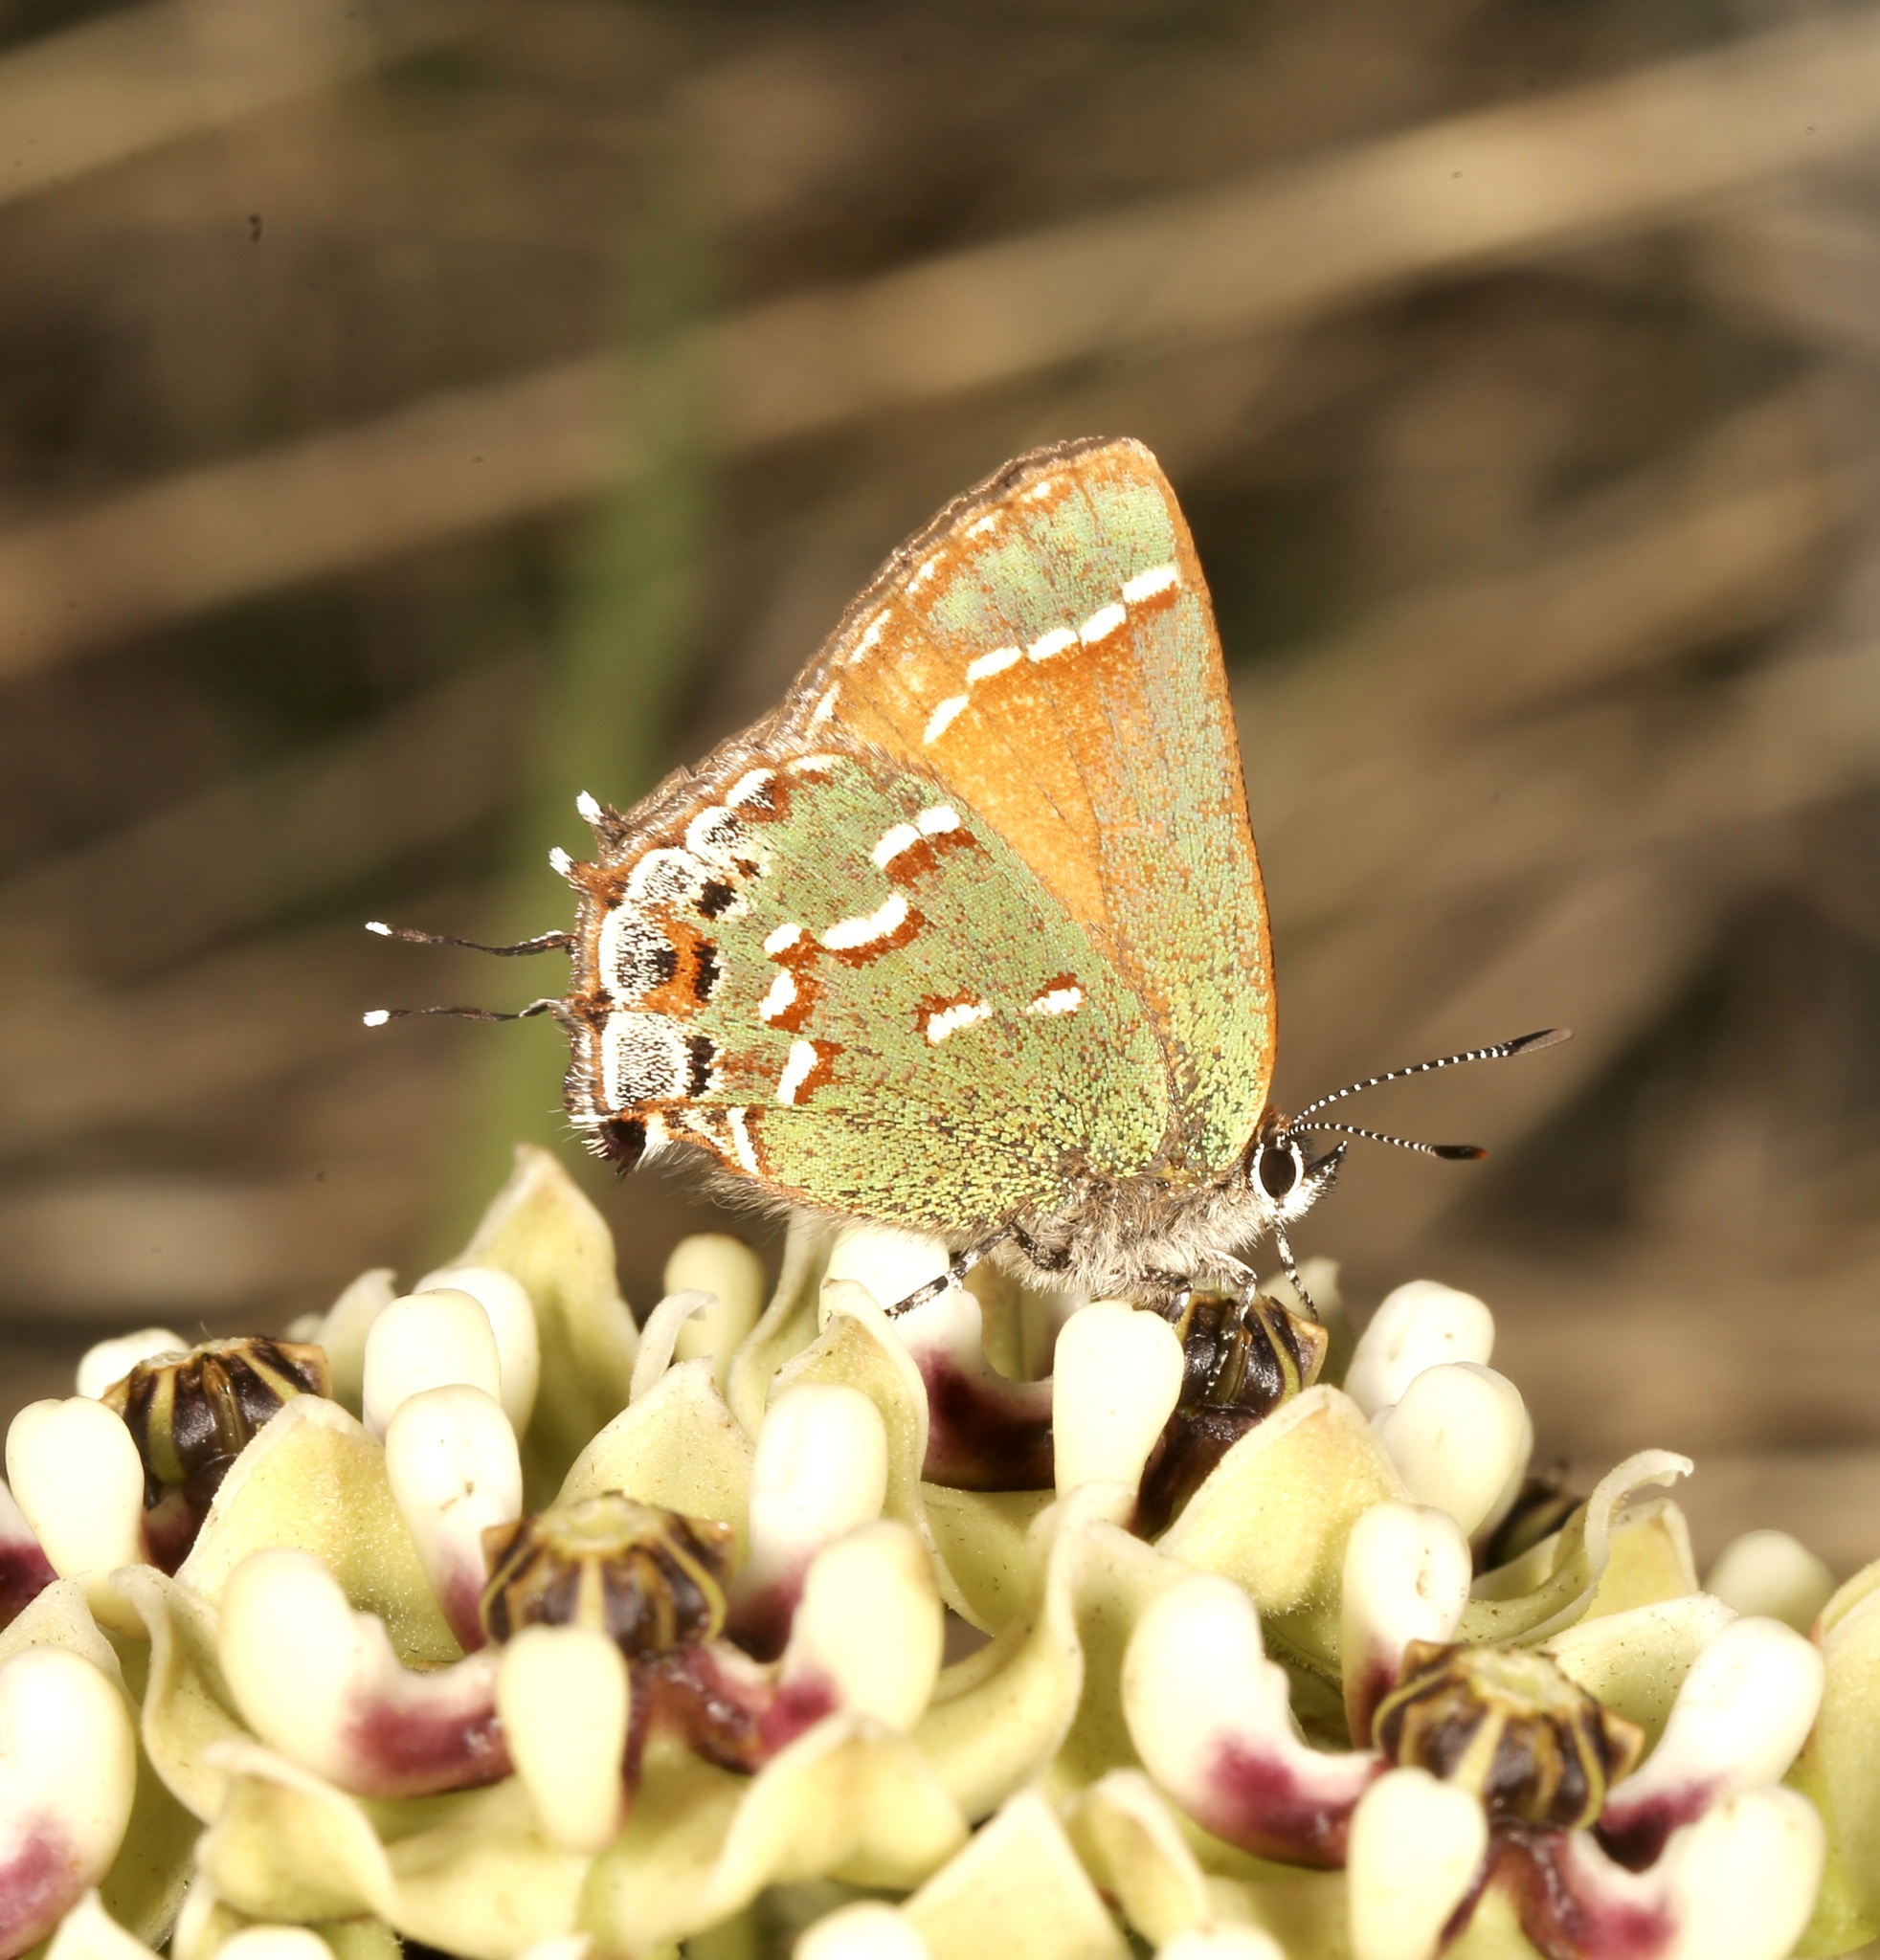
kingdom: Animalia
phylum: Arthropoda
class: Insecta
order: Lepidoptera
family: Lycaenidae
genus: Mitoura
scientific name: Mitoura gryneus
